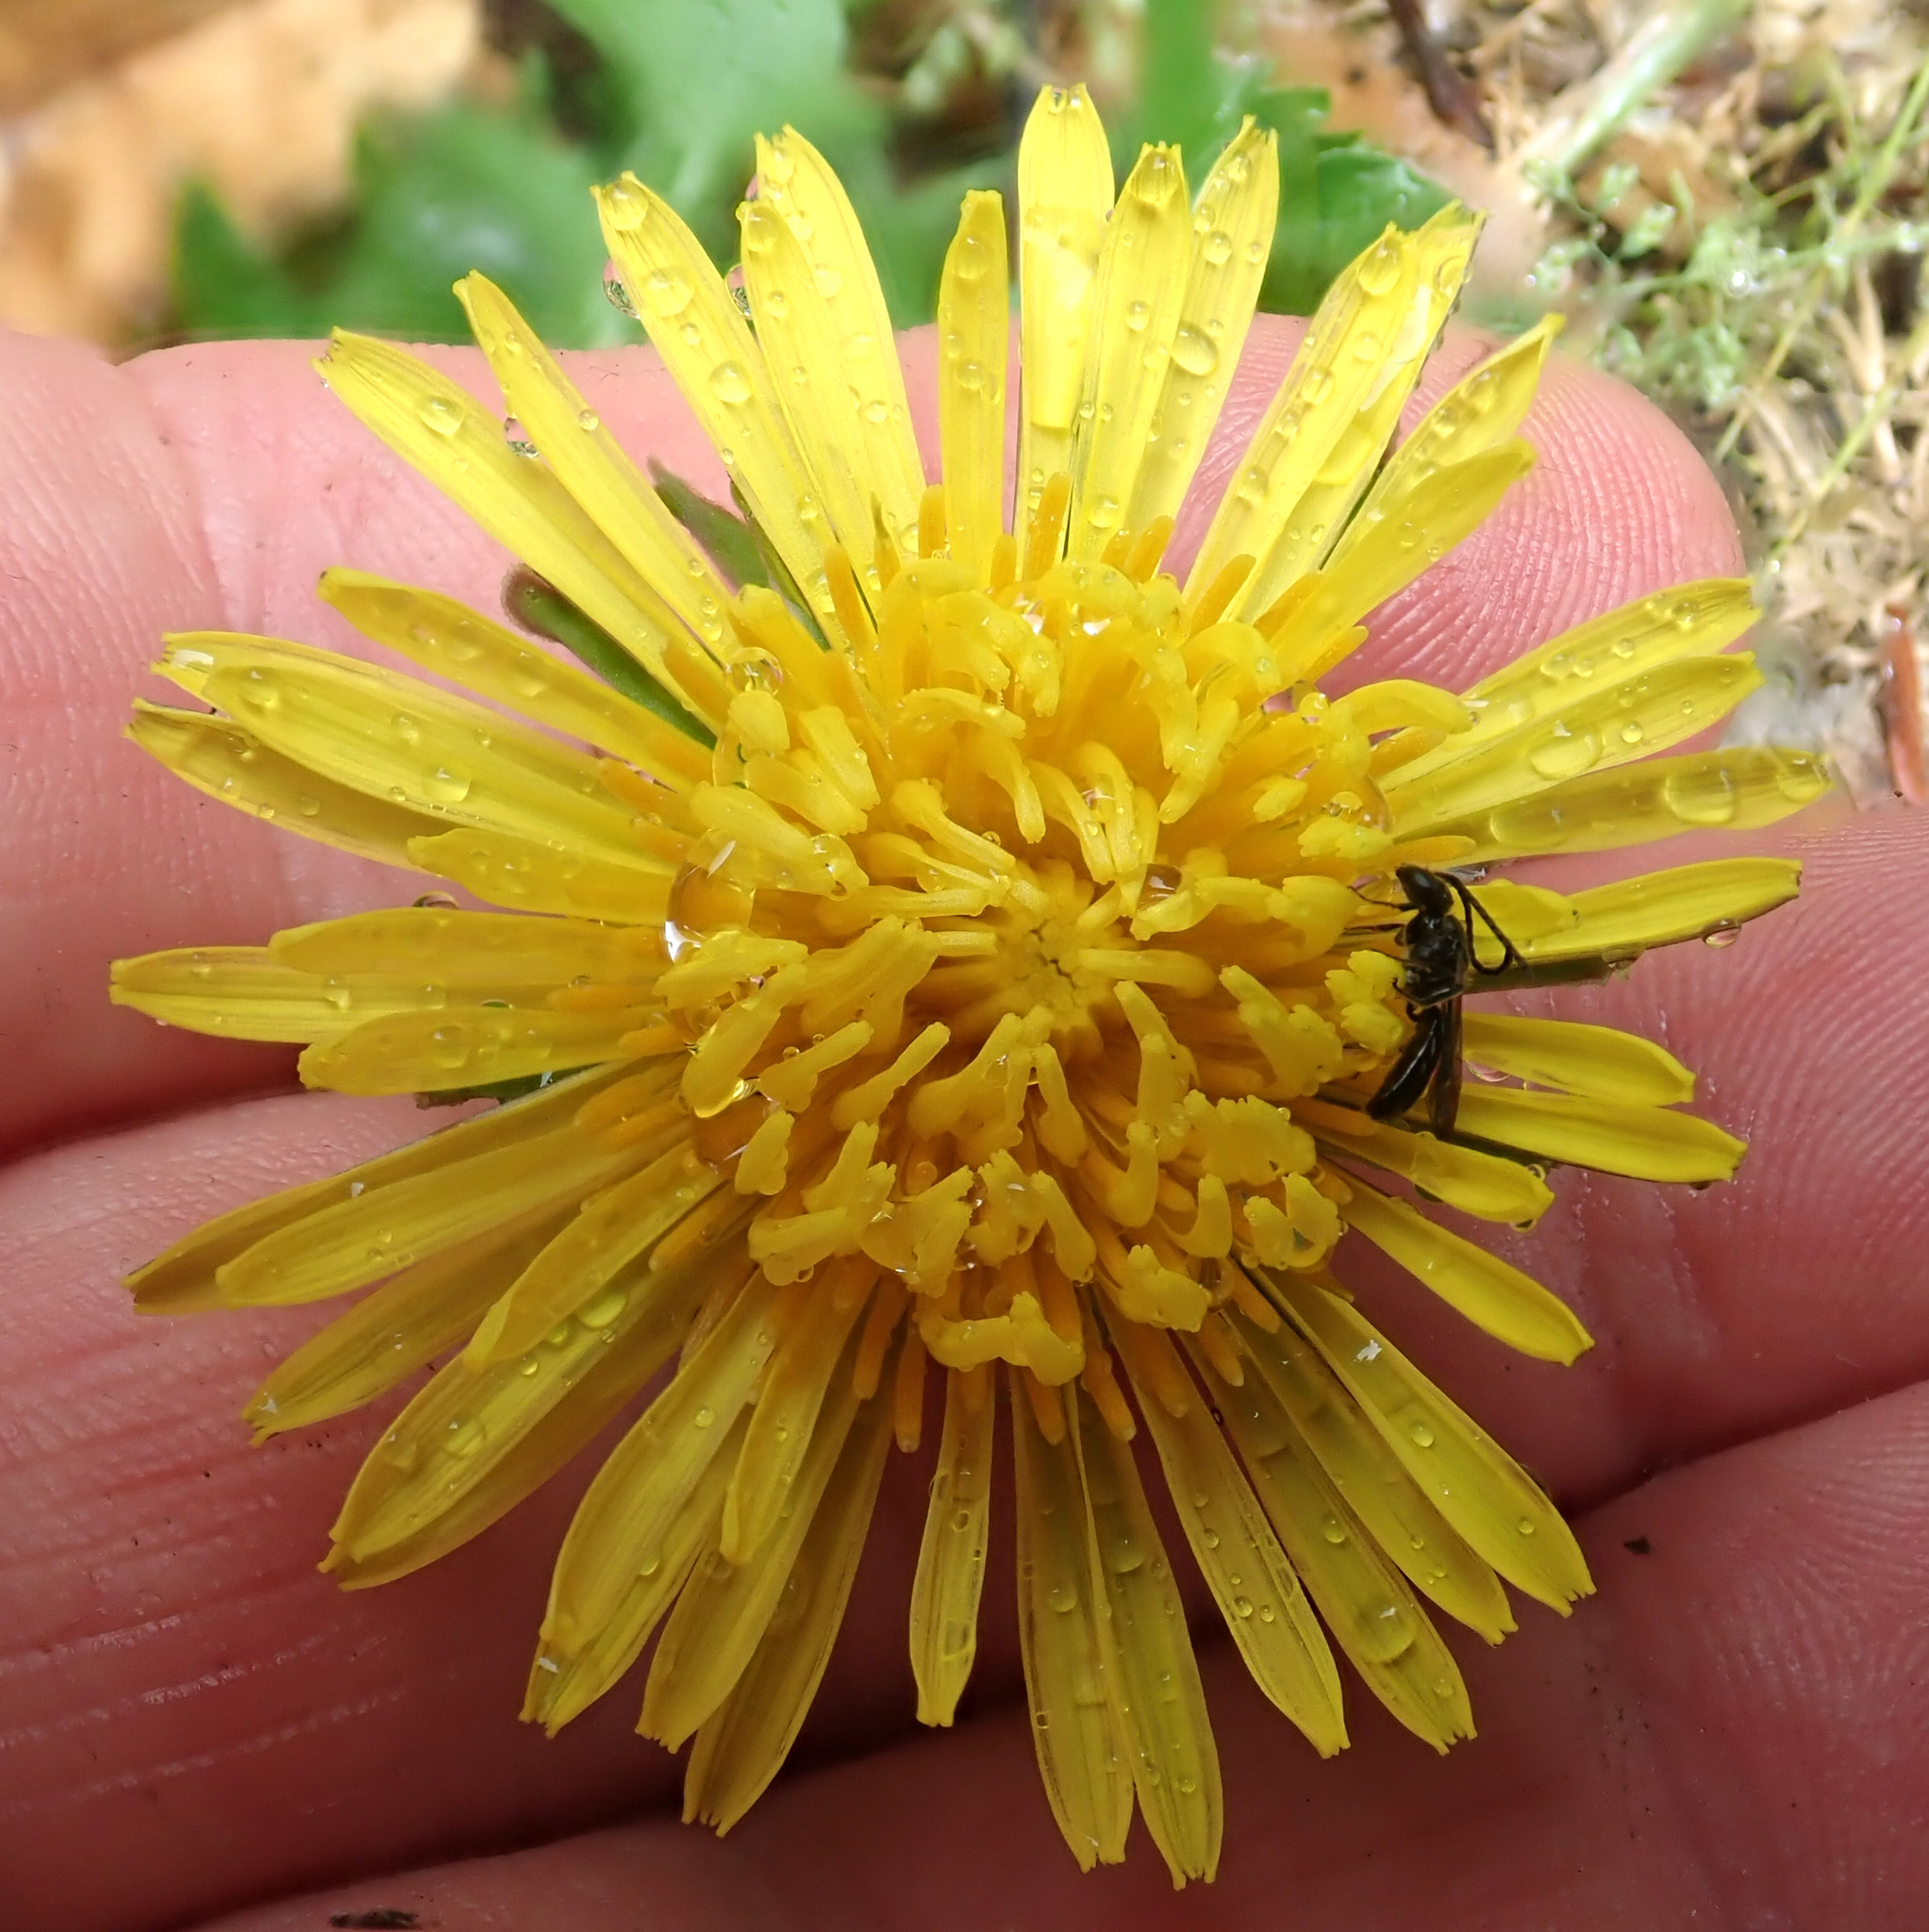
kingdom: Animalia
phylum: Arthropoda
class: Insecta
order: Hymenoptera
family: Halictidae
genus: Lasioglossum
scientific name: Lasioglossum sordidum
